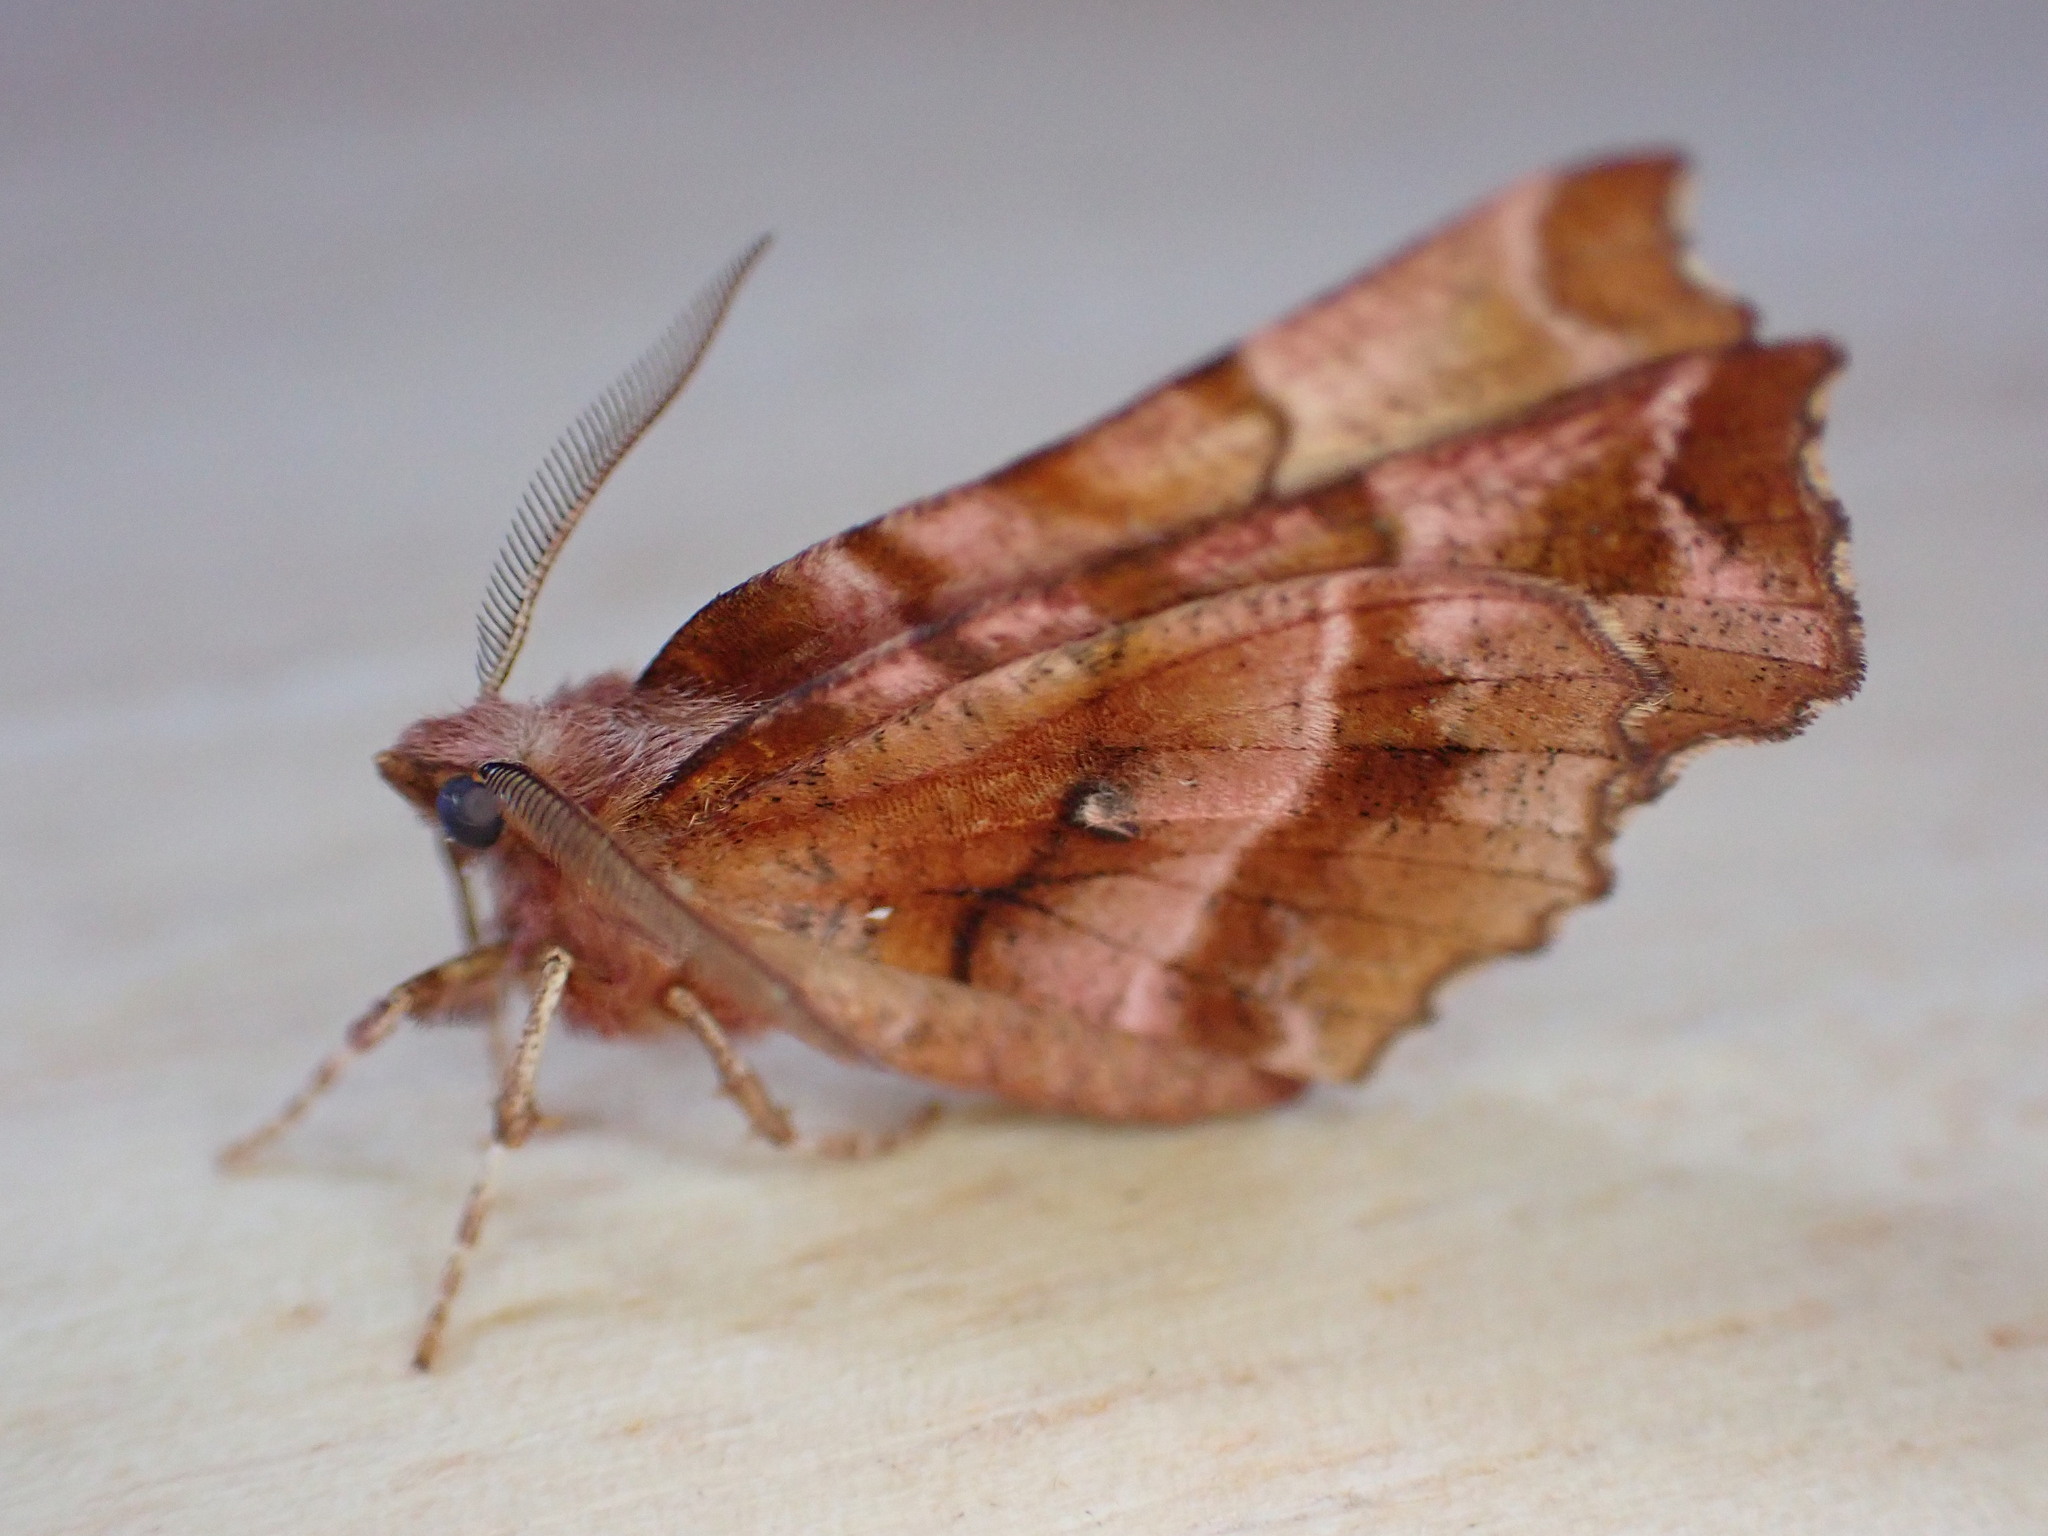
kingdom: Animalia
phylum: Arthropoda
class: Insecta
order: Lepidoptera
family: Geometridae
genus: Selenia
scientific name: Selenia dentaria
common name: Early thorn
